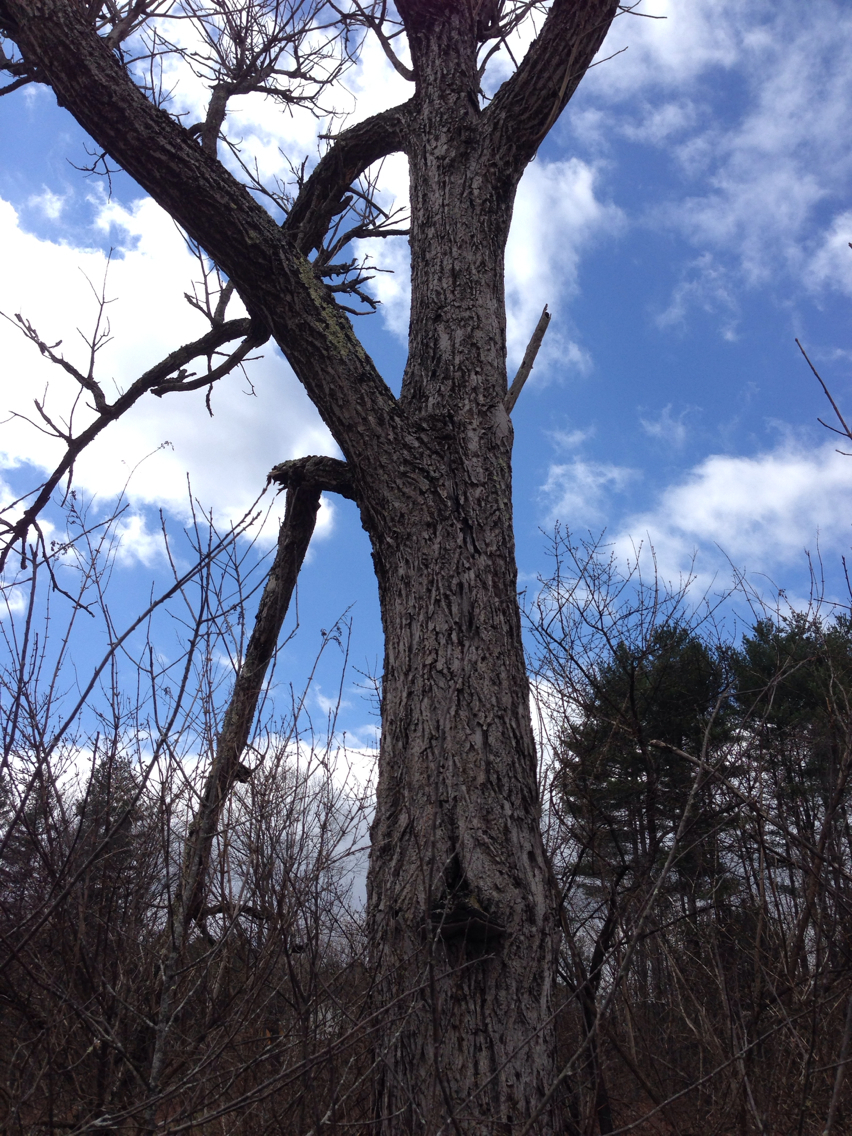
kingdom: Plantae
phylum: Tracheophyta
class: Magnoliopsida
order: Fagales
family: Juglandaceae
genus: Juglans
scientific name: Juglans cinerea
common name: Butternut
